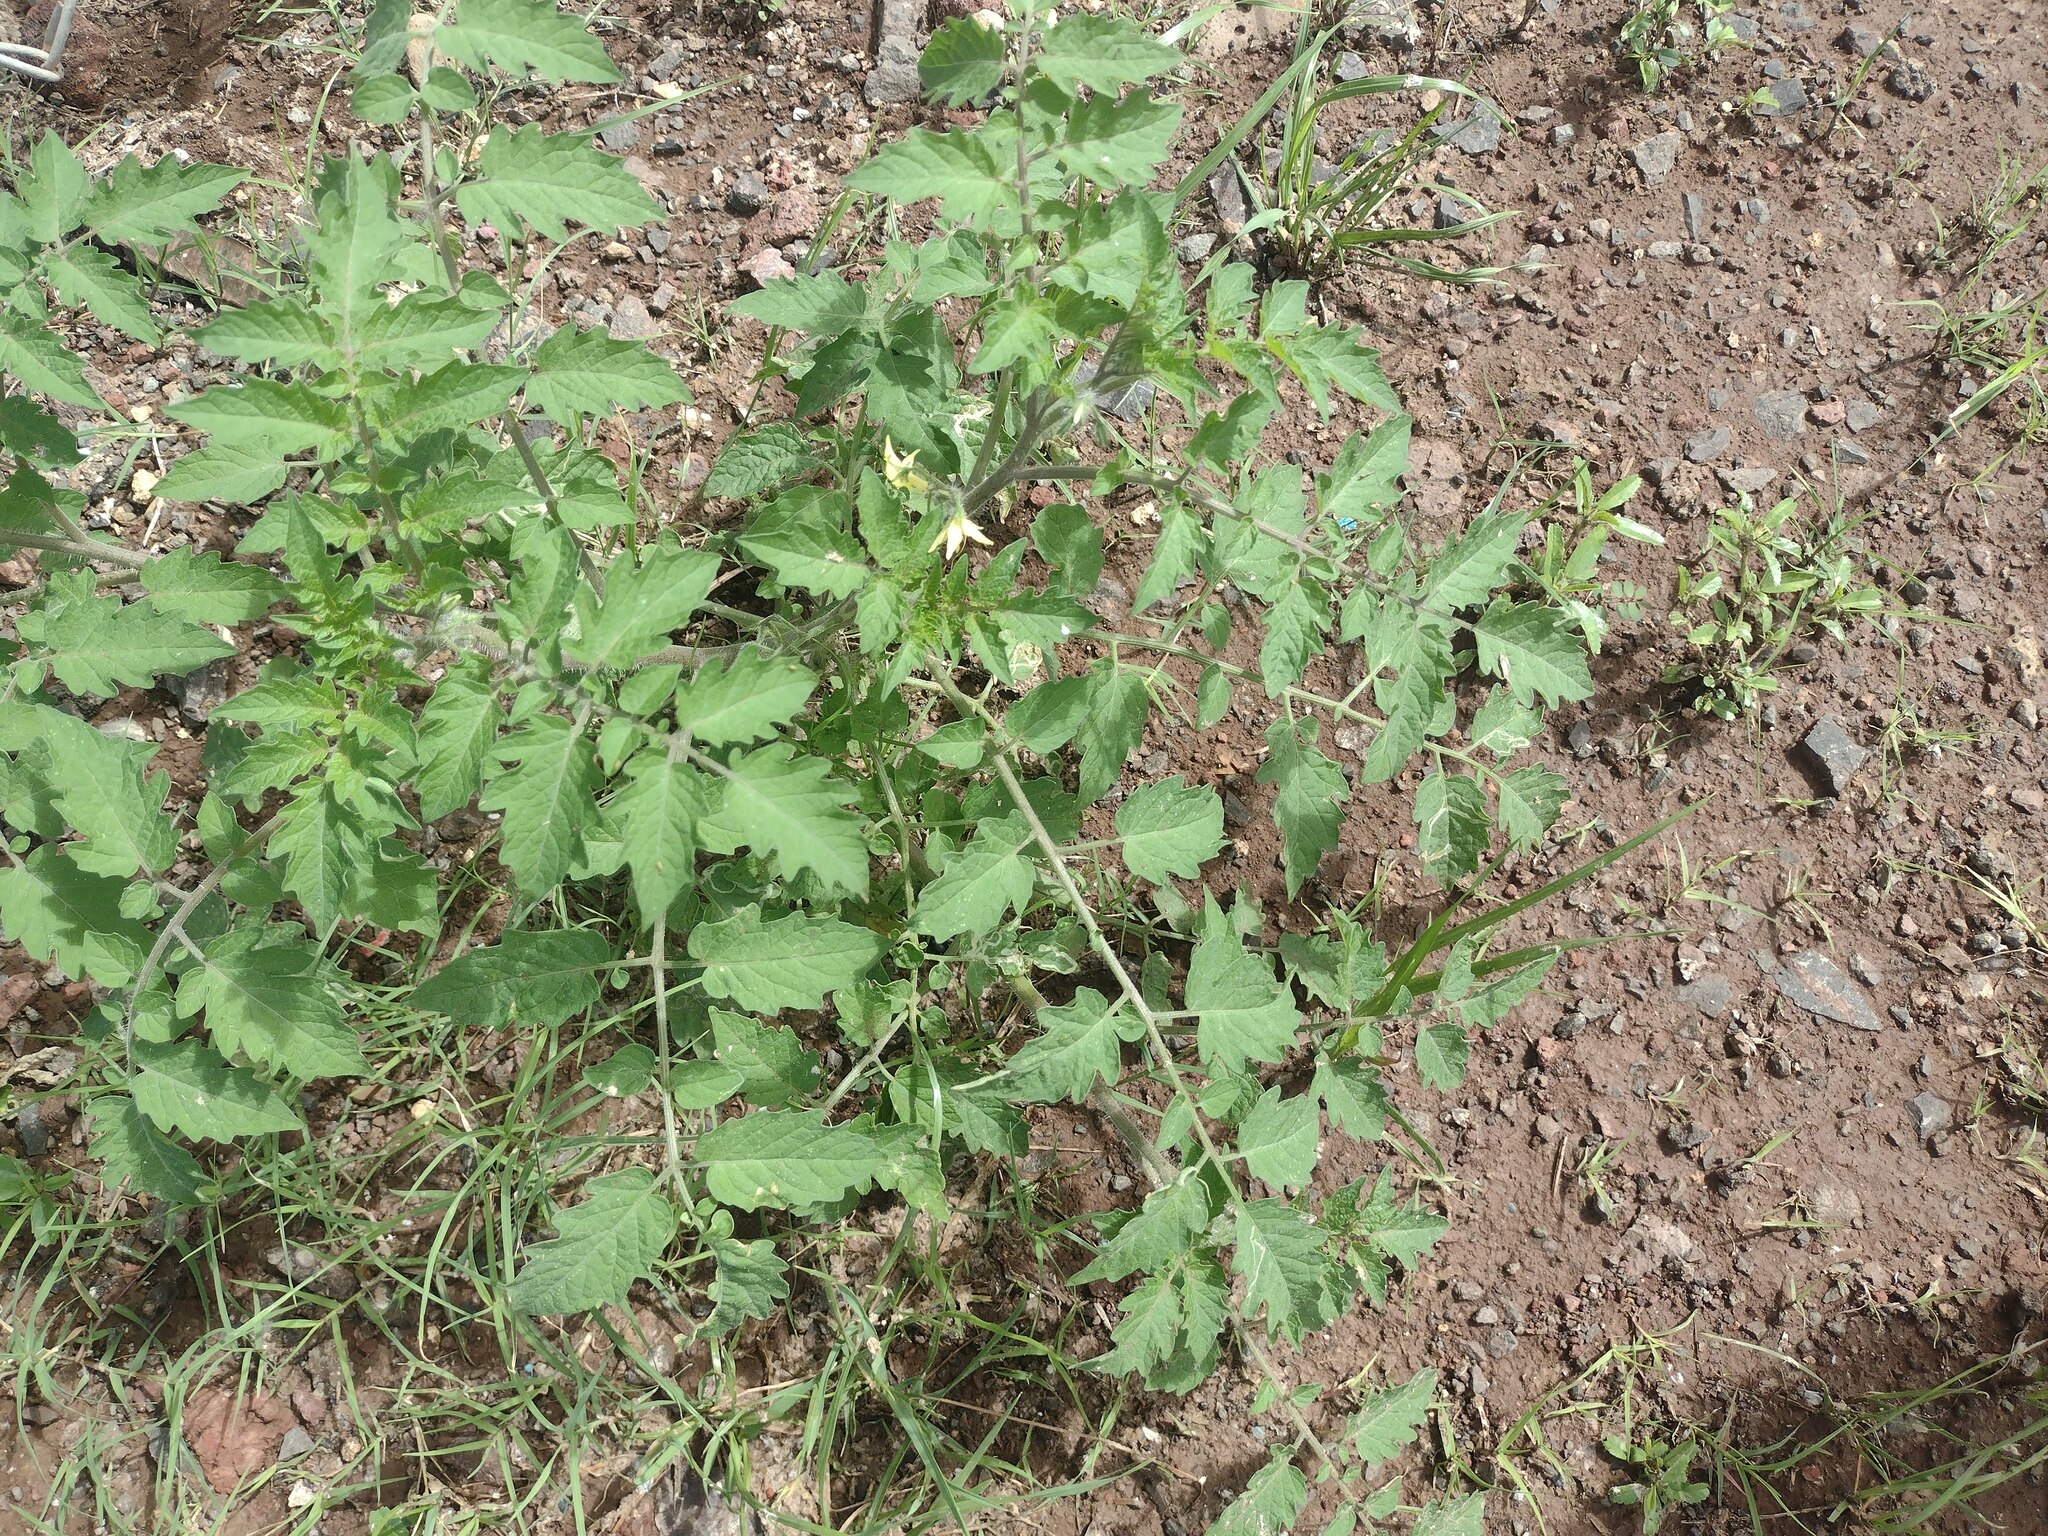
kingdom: Plantae
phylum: Tracheophyta
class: Magnoliopsida
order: Solanales
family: Solanaceae
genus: Solanum
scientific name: Solanum lycopersicum
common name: Garden tomato
